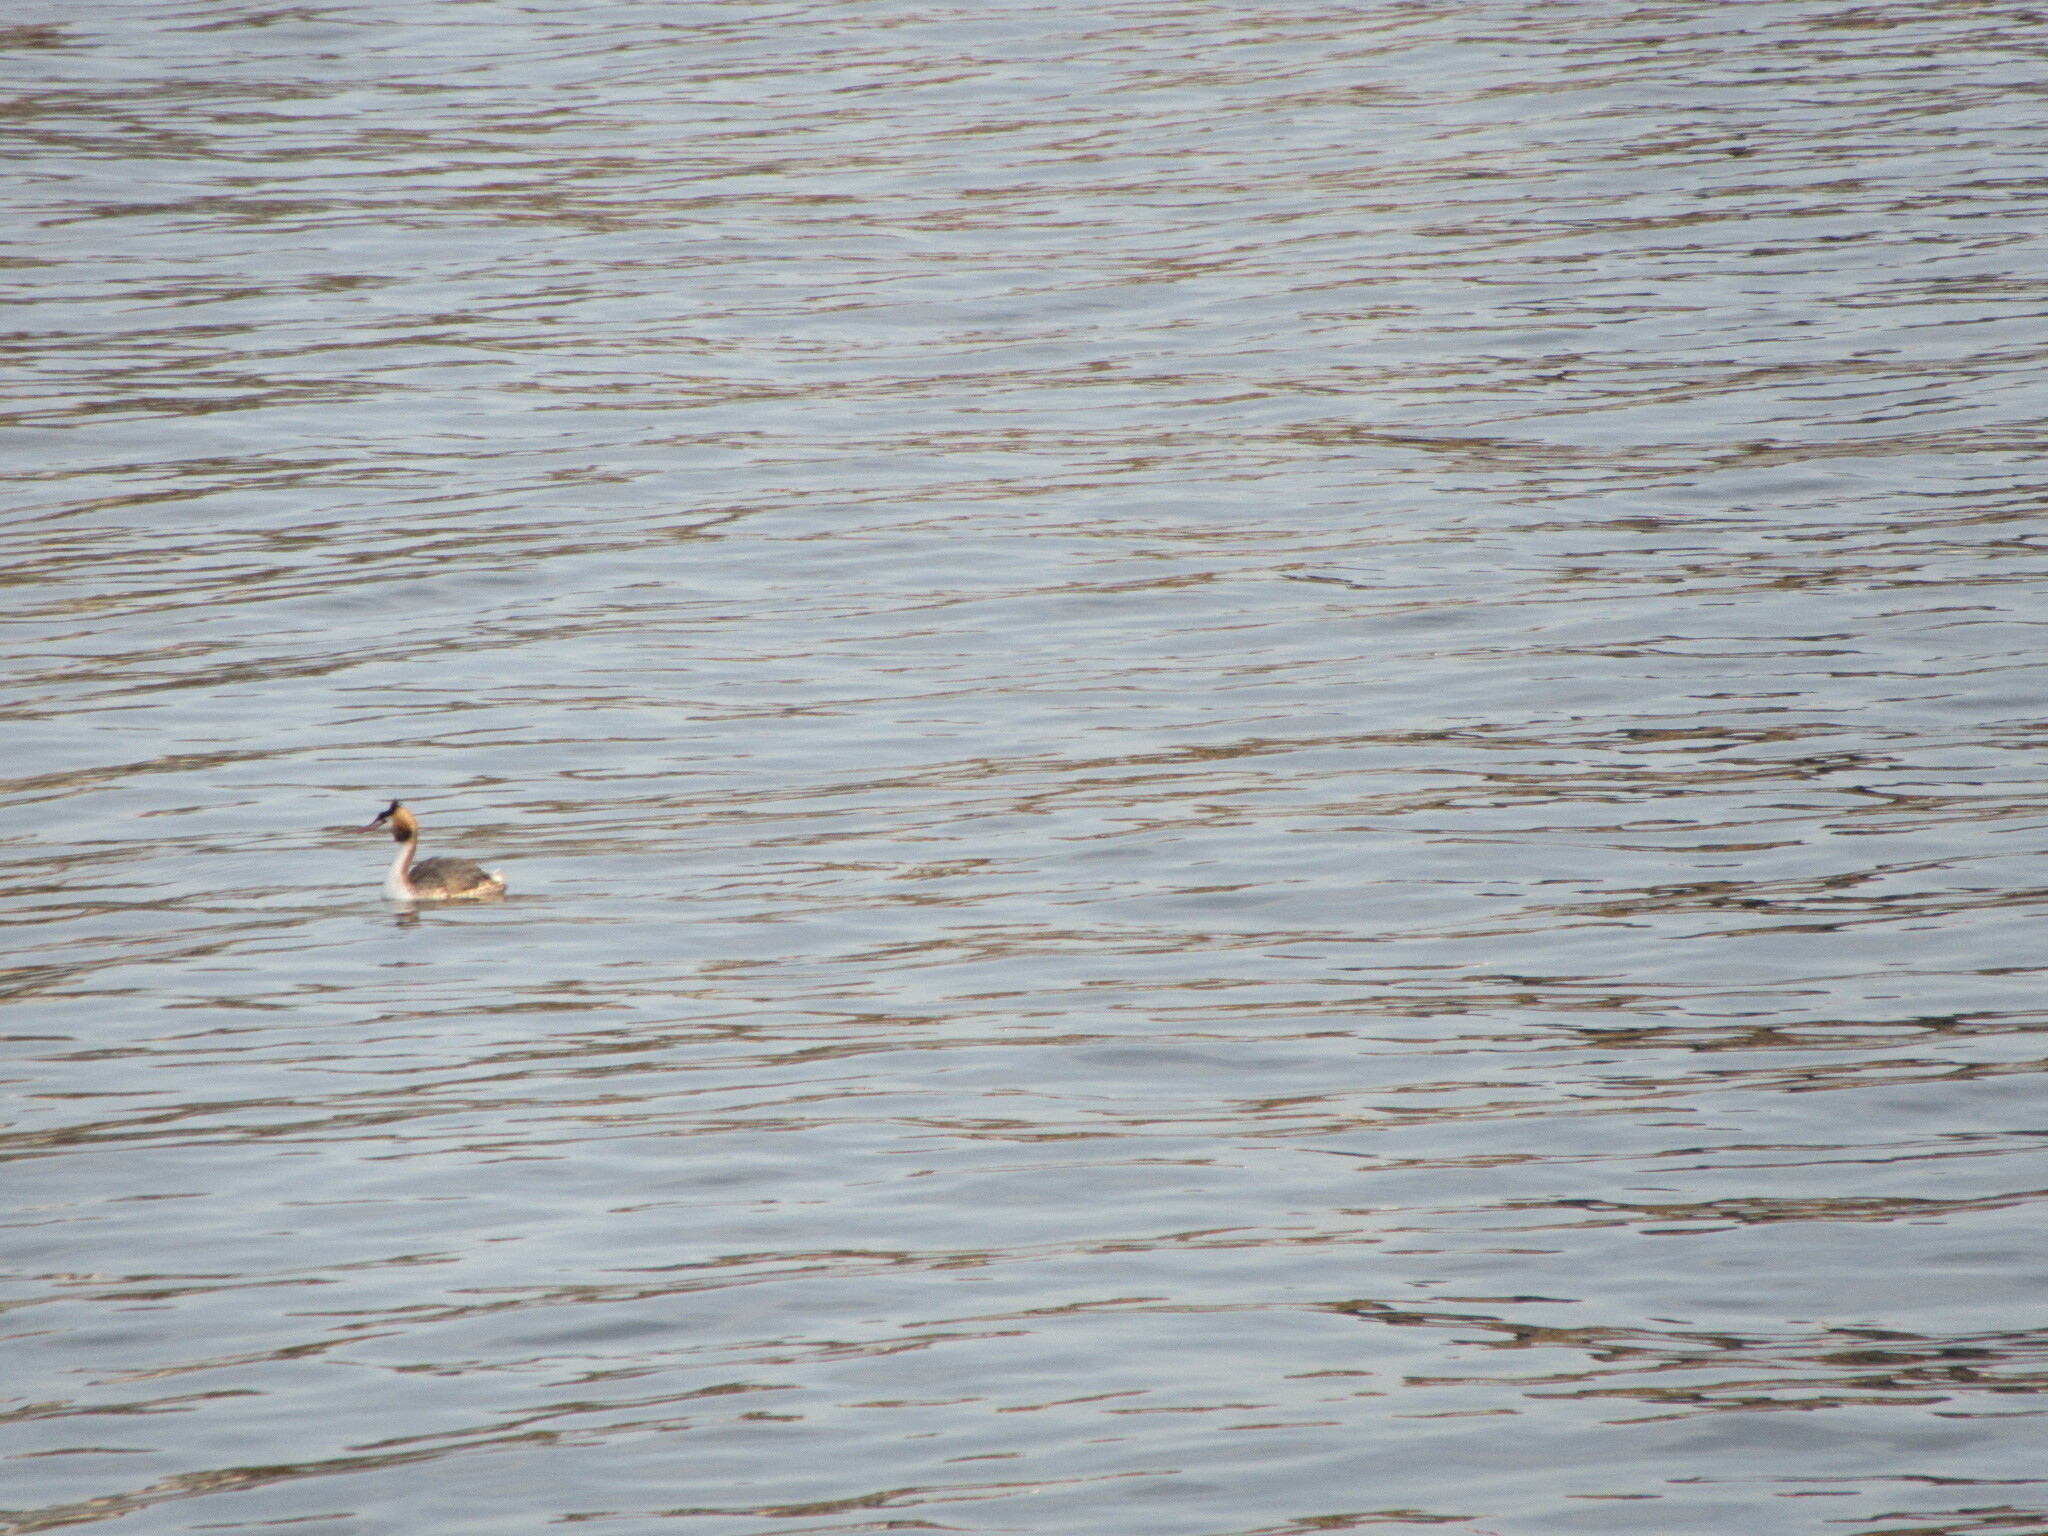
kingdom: Animalia
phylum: Chordata
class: Aves
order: Podicipediformes
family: Podicipedidae
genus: Podiceps
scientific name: Podiceps cristatus
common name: Great crested grebe
